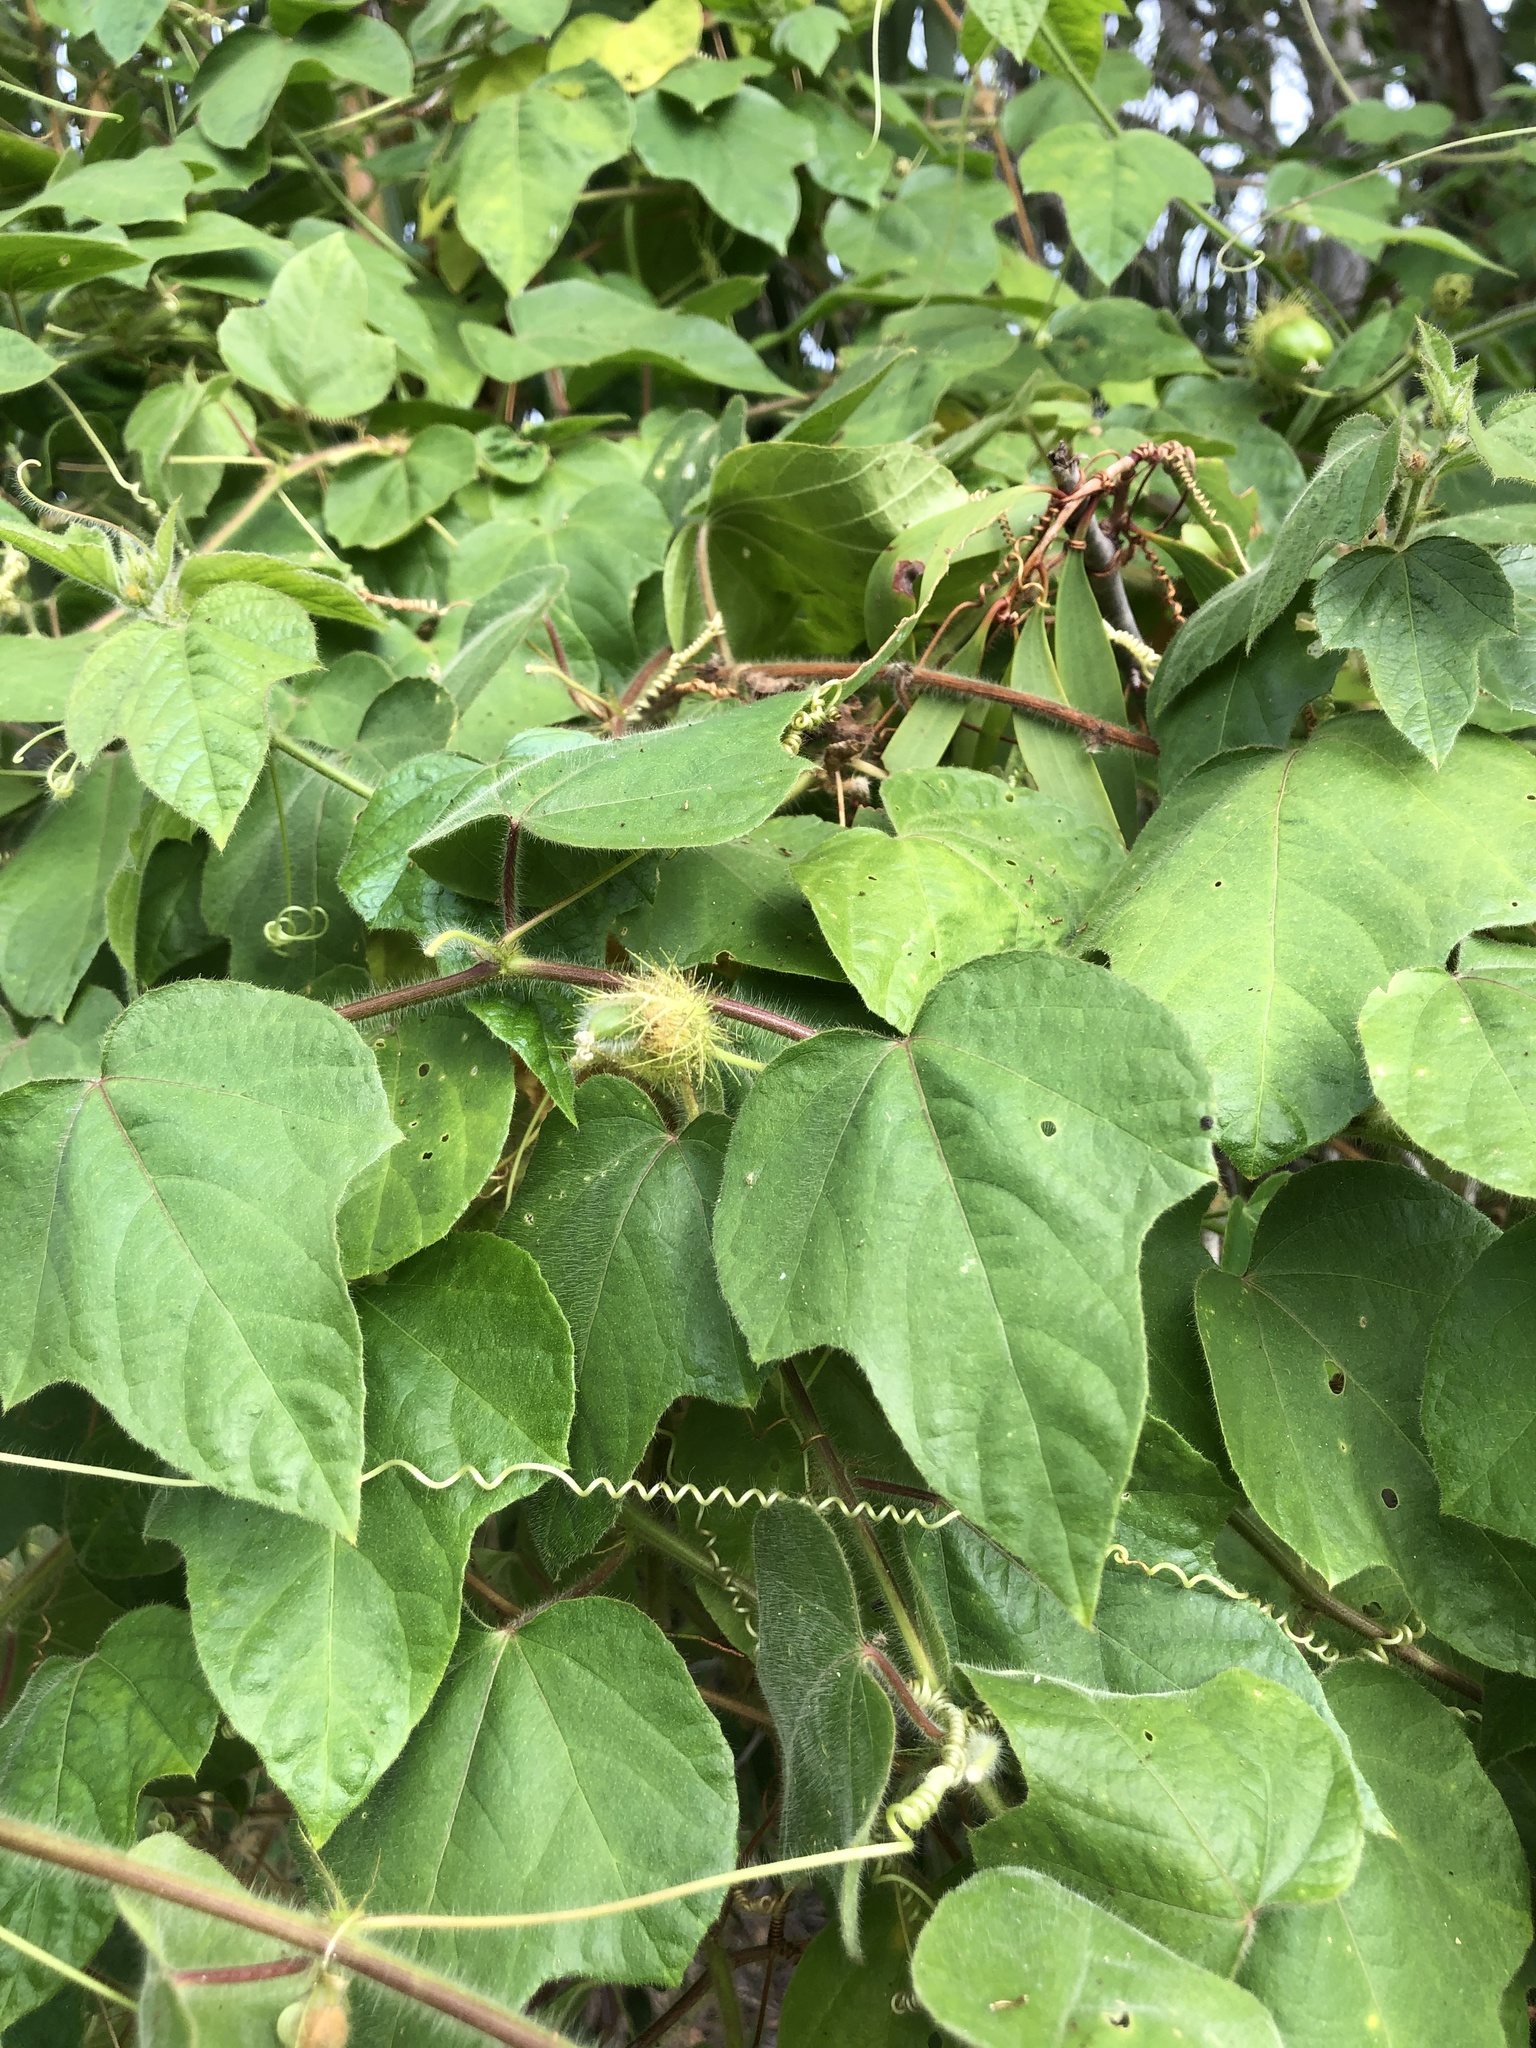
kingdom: Plantae
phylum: Tracheophyta
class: Magnoliopsida
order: Malpighiales
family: Passifloraceae
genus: Passiflora
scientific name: Passiflora foetida
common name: Fetid passionflower
